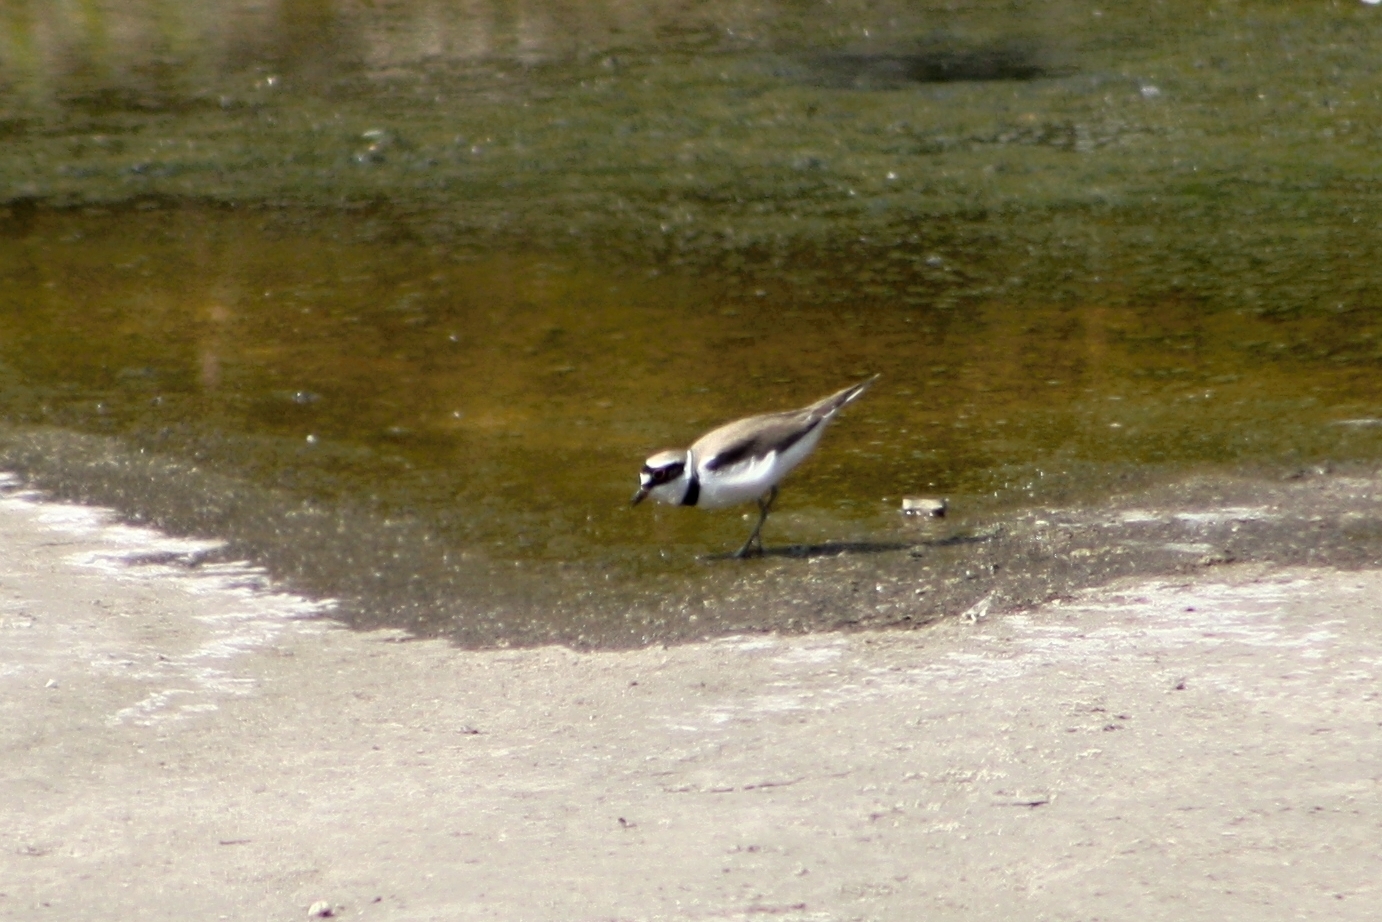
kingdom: Animalia
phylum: Chordata
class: Aves
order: Charadriiformes
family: Charadriidae
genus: Charadrius
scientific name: Charadrius dubius
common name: Little ringed plover
